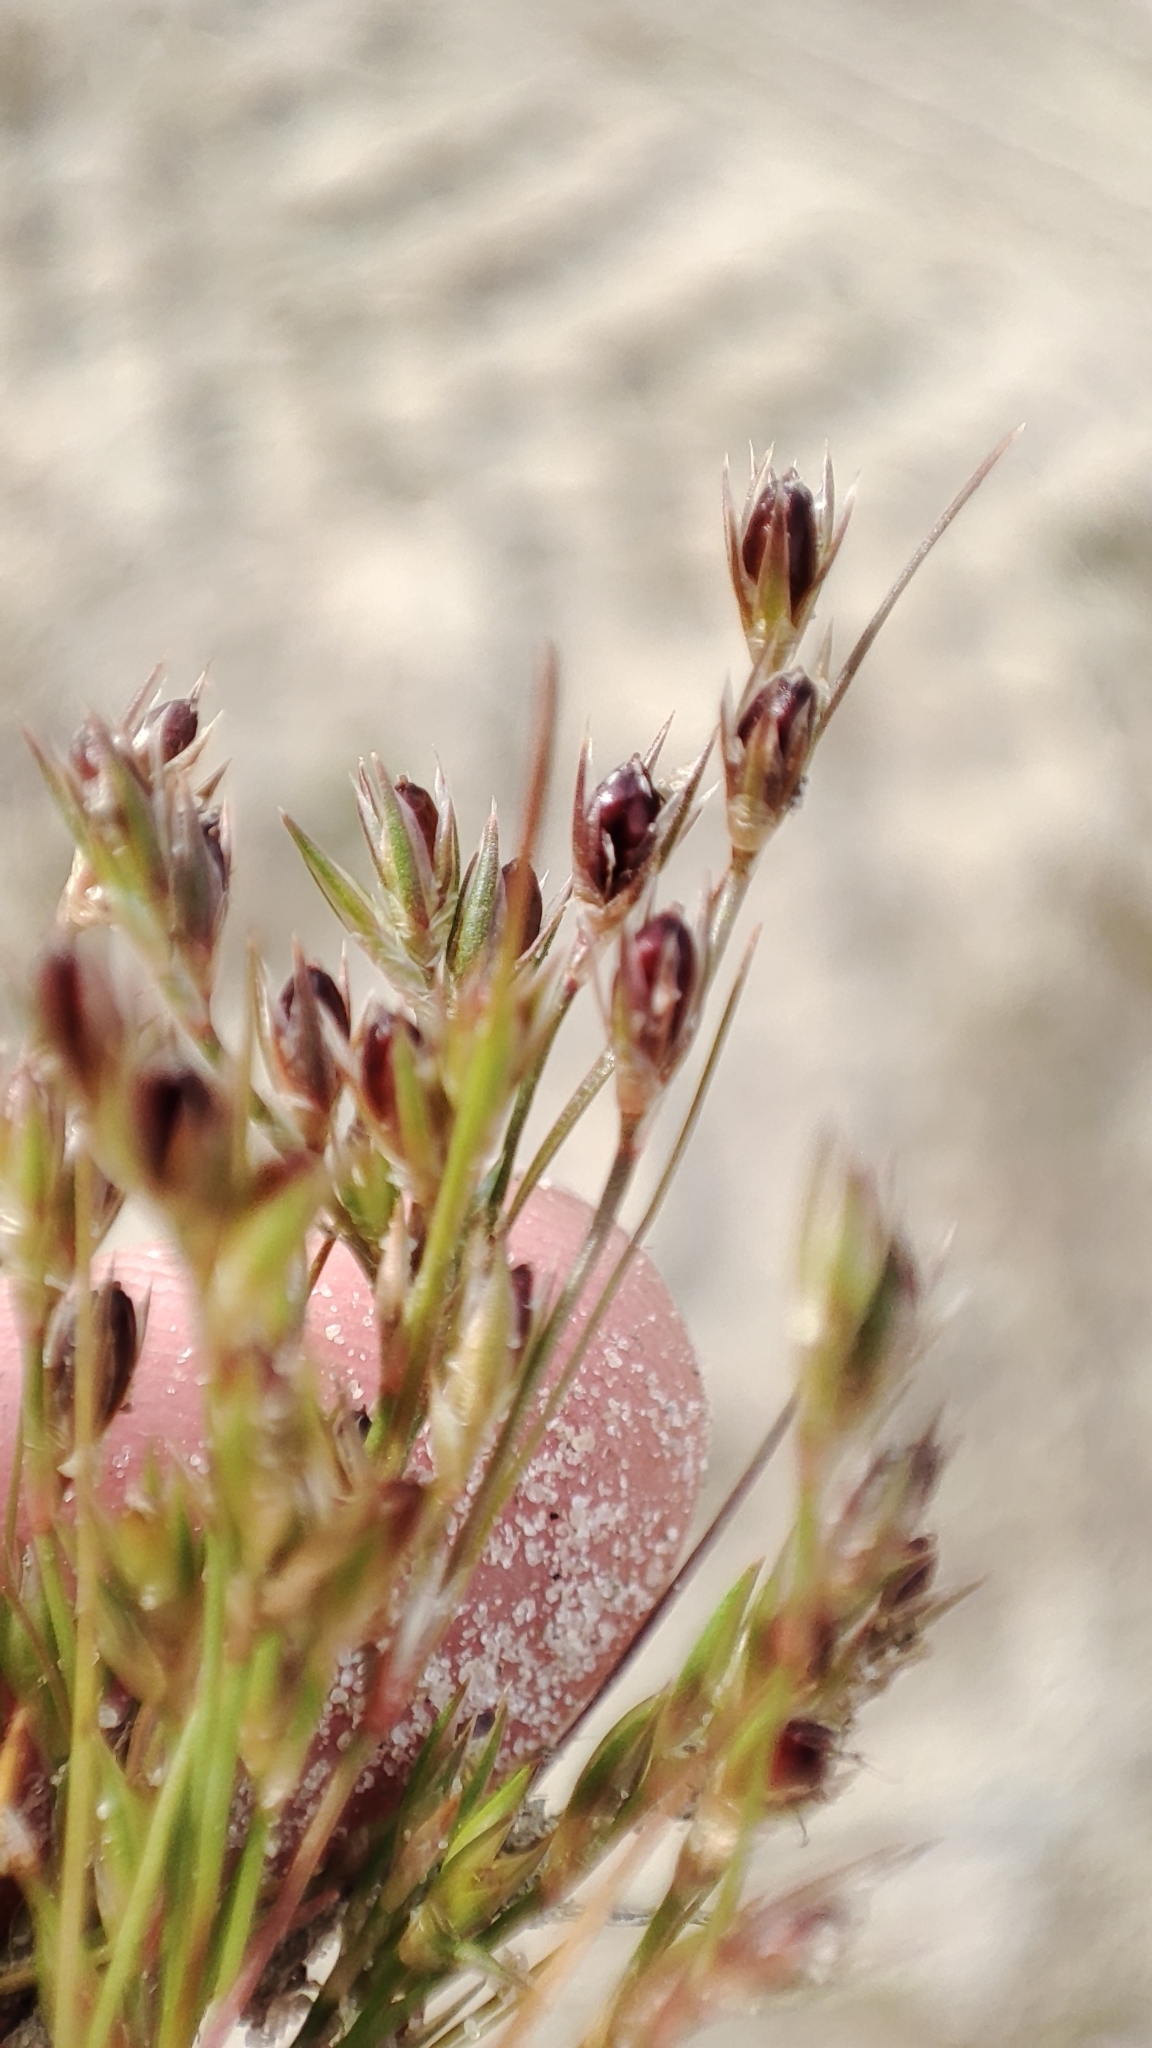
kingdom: Plantae
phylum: Tracheophyta
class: Liliopsida
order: Poales
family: Juncaceae
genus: Juncus
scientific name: Juncus bufonius
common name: Toad rush
